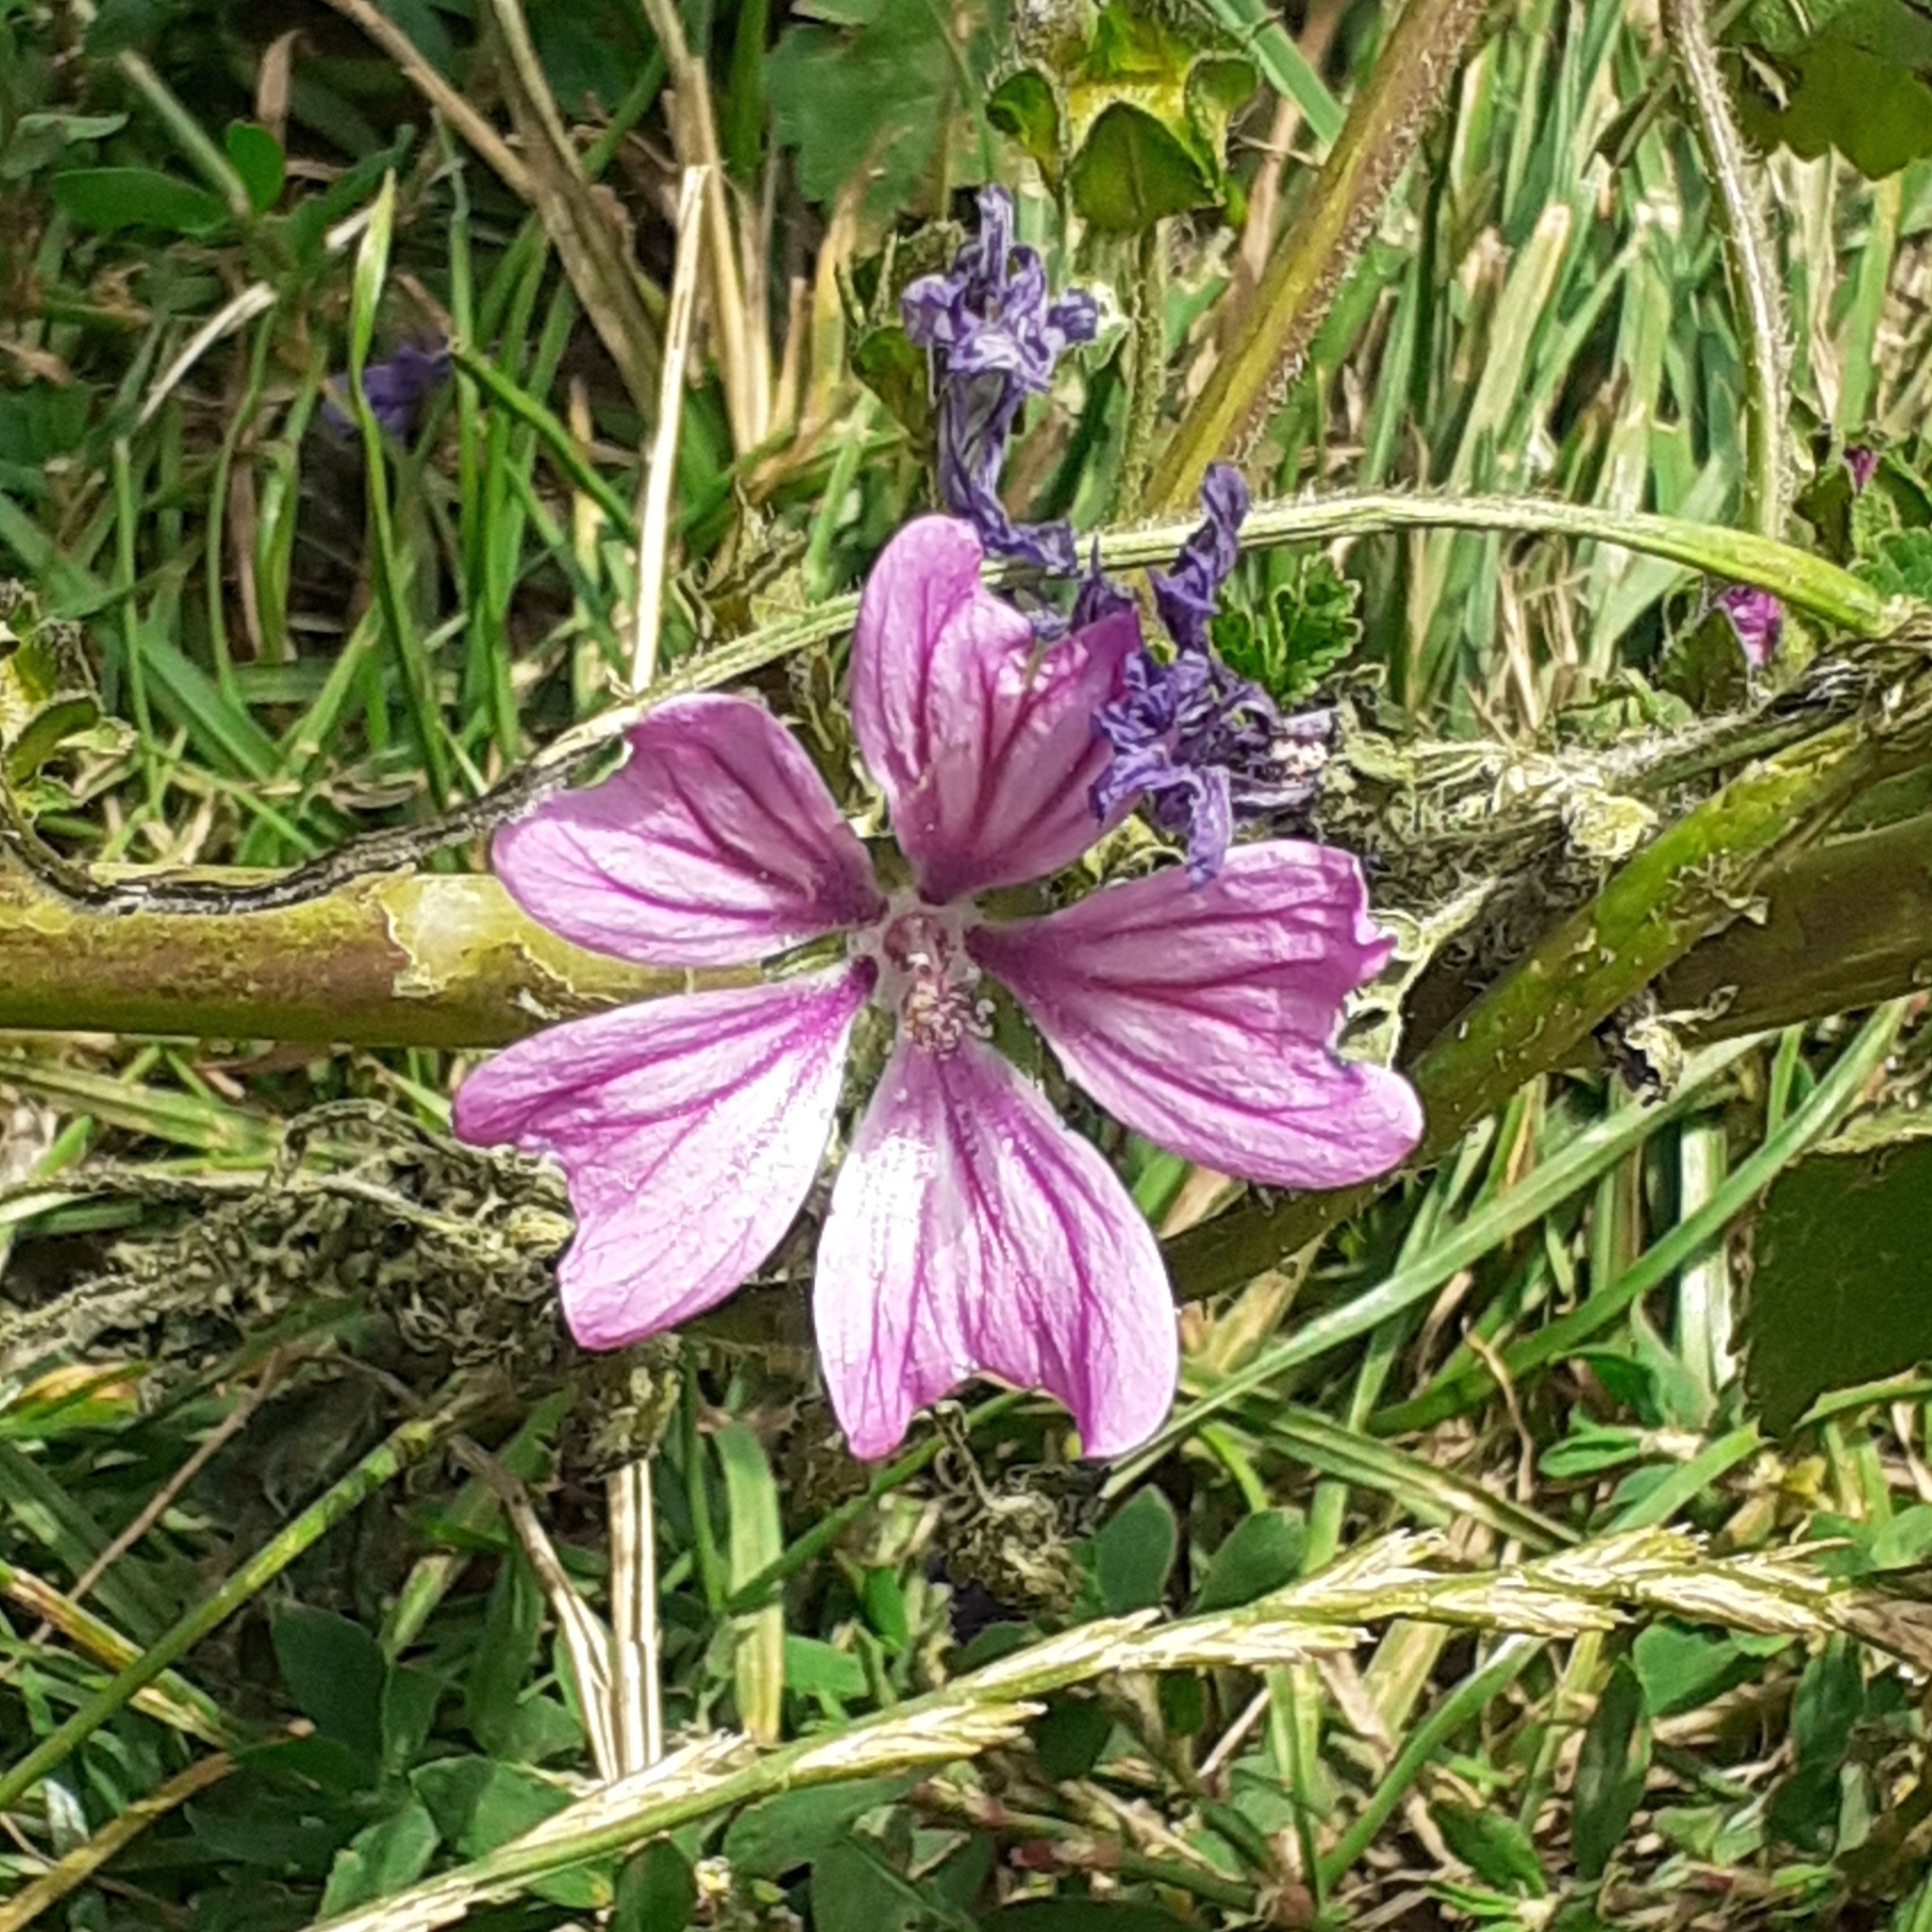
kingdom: Plantae
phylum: Tracheophyta
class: Magnoliopsida
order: Malvales
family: Malvaceae
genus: Malva
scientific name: Malva sylvestris
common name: Common mallow
